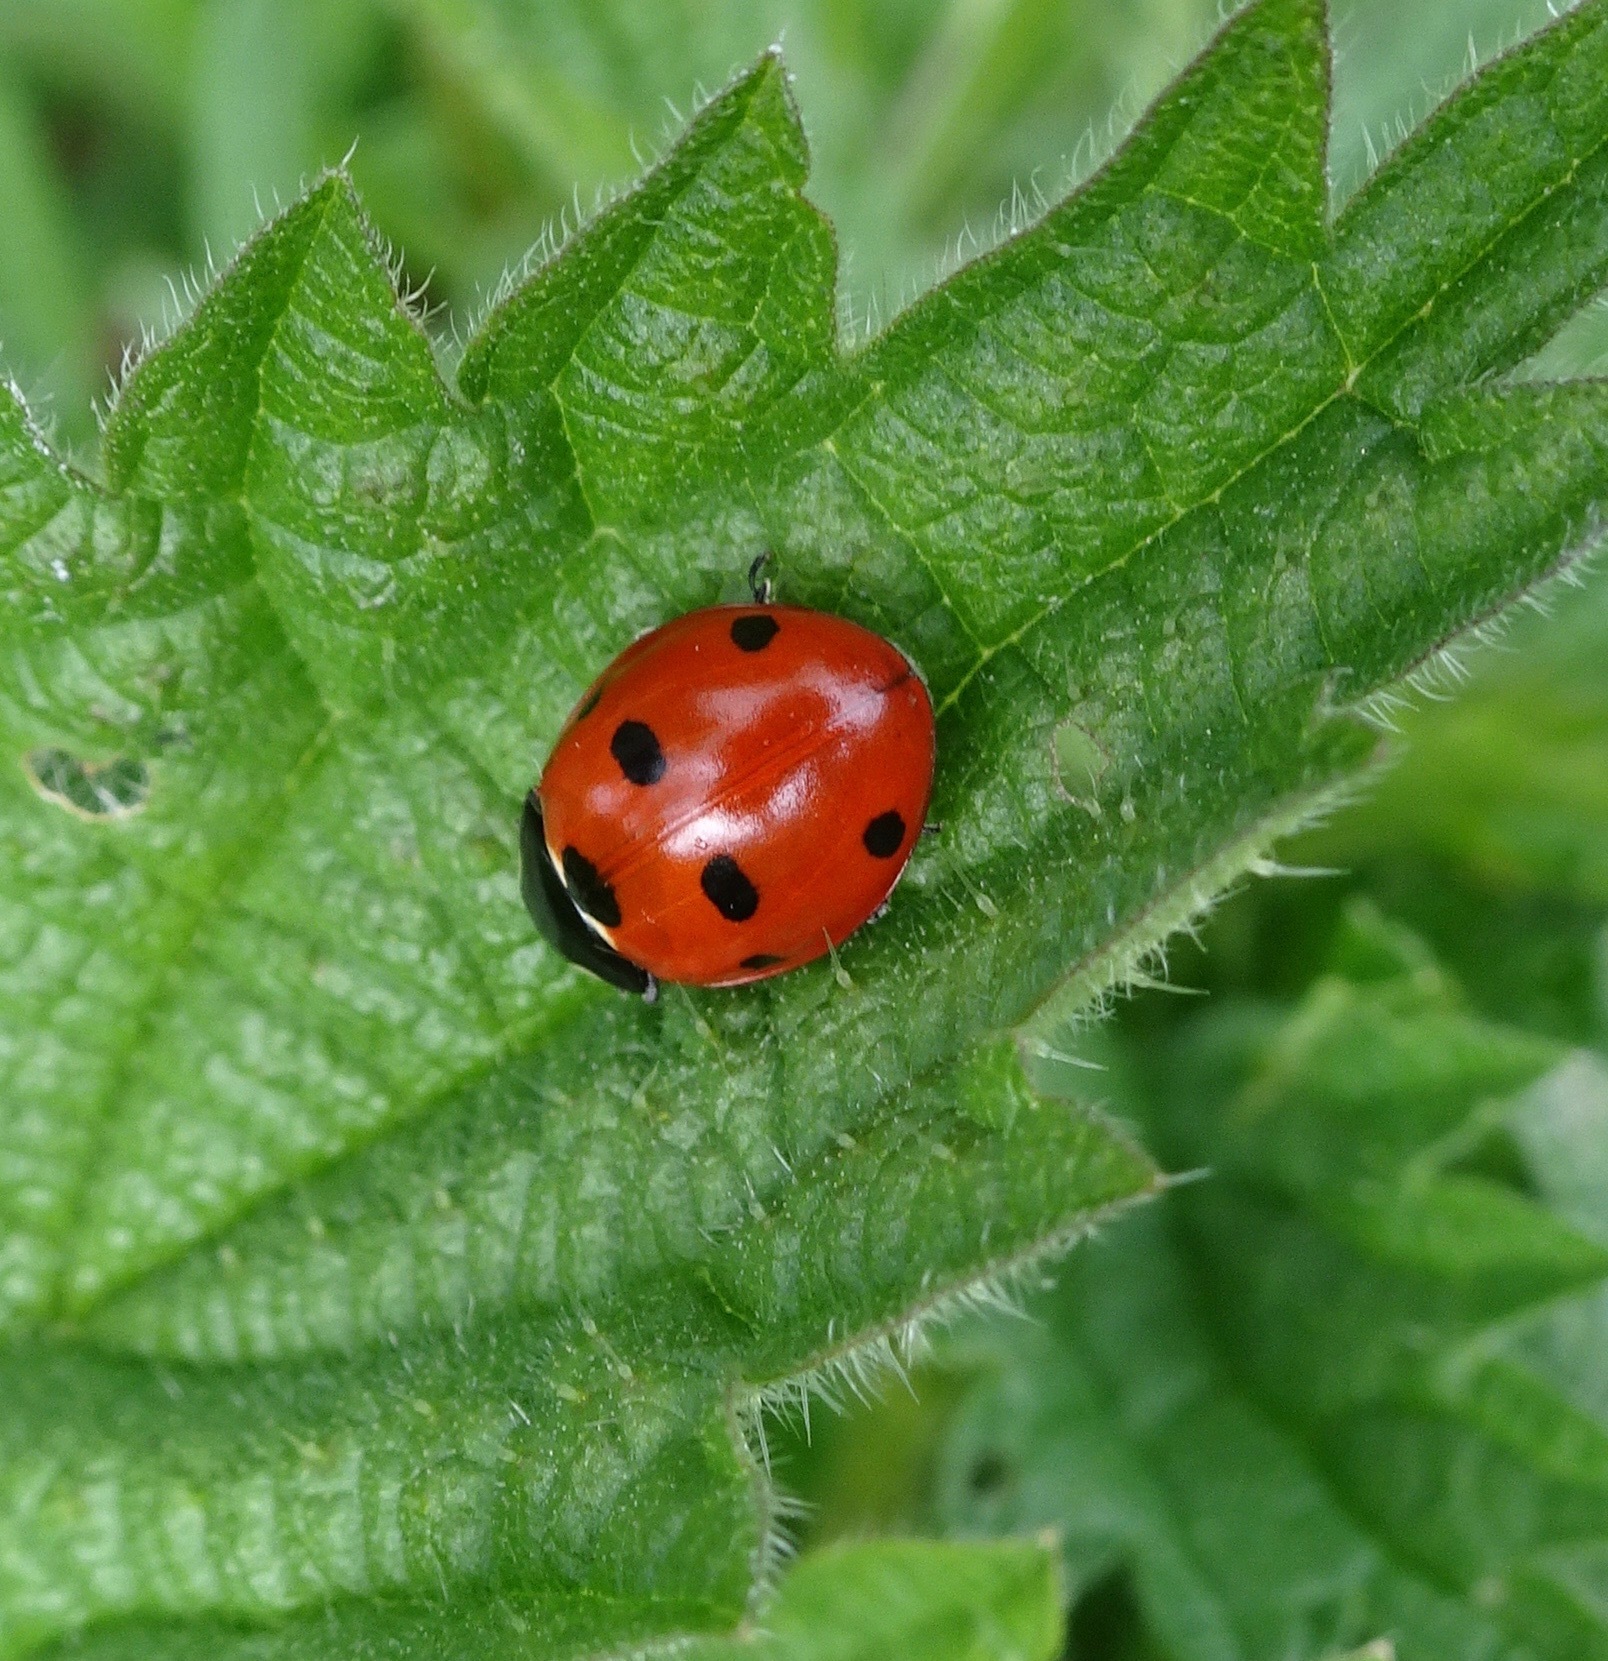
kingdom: Animalia
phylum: Arthropoda
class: Insecta
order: Coleoptera
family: Coccinellidae
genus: Coccinella
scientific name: Coccinella septempunctata
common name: Sevenspotted lady beetle
